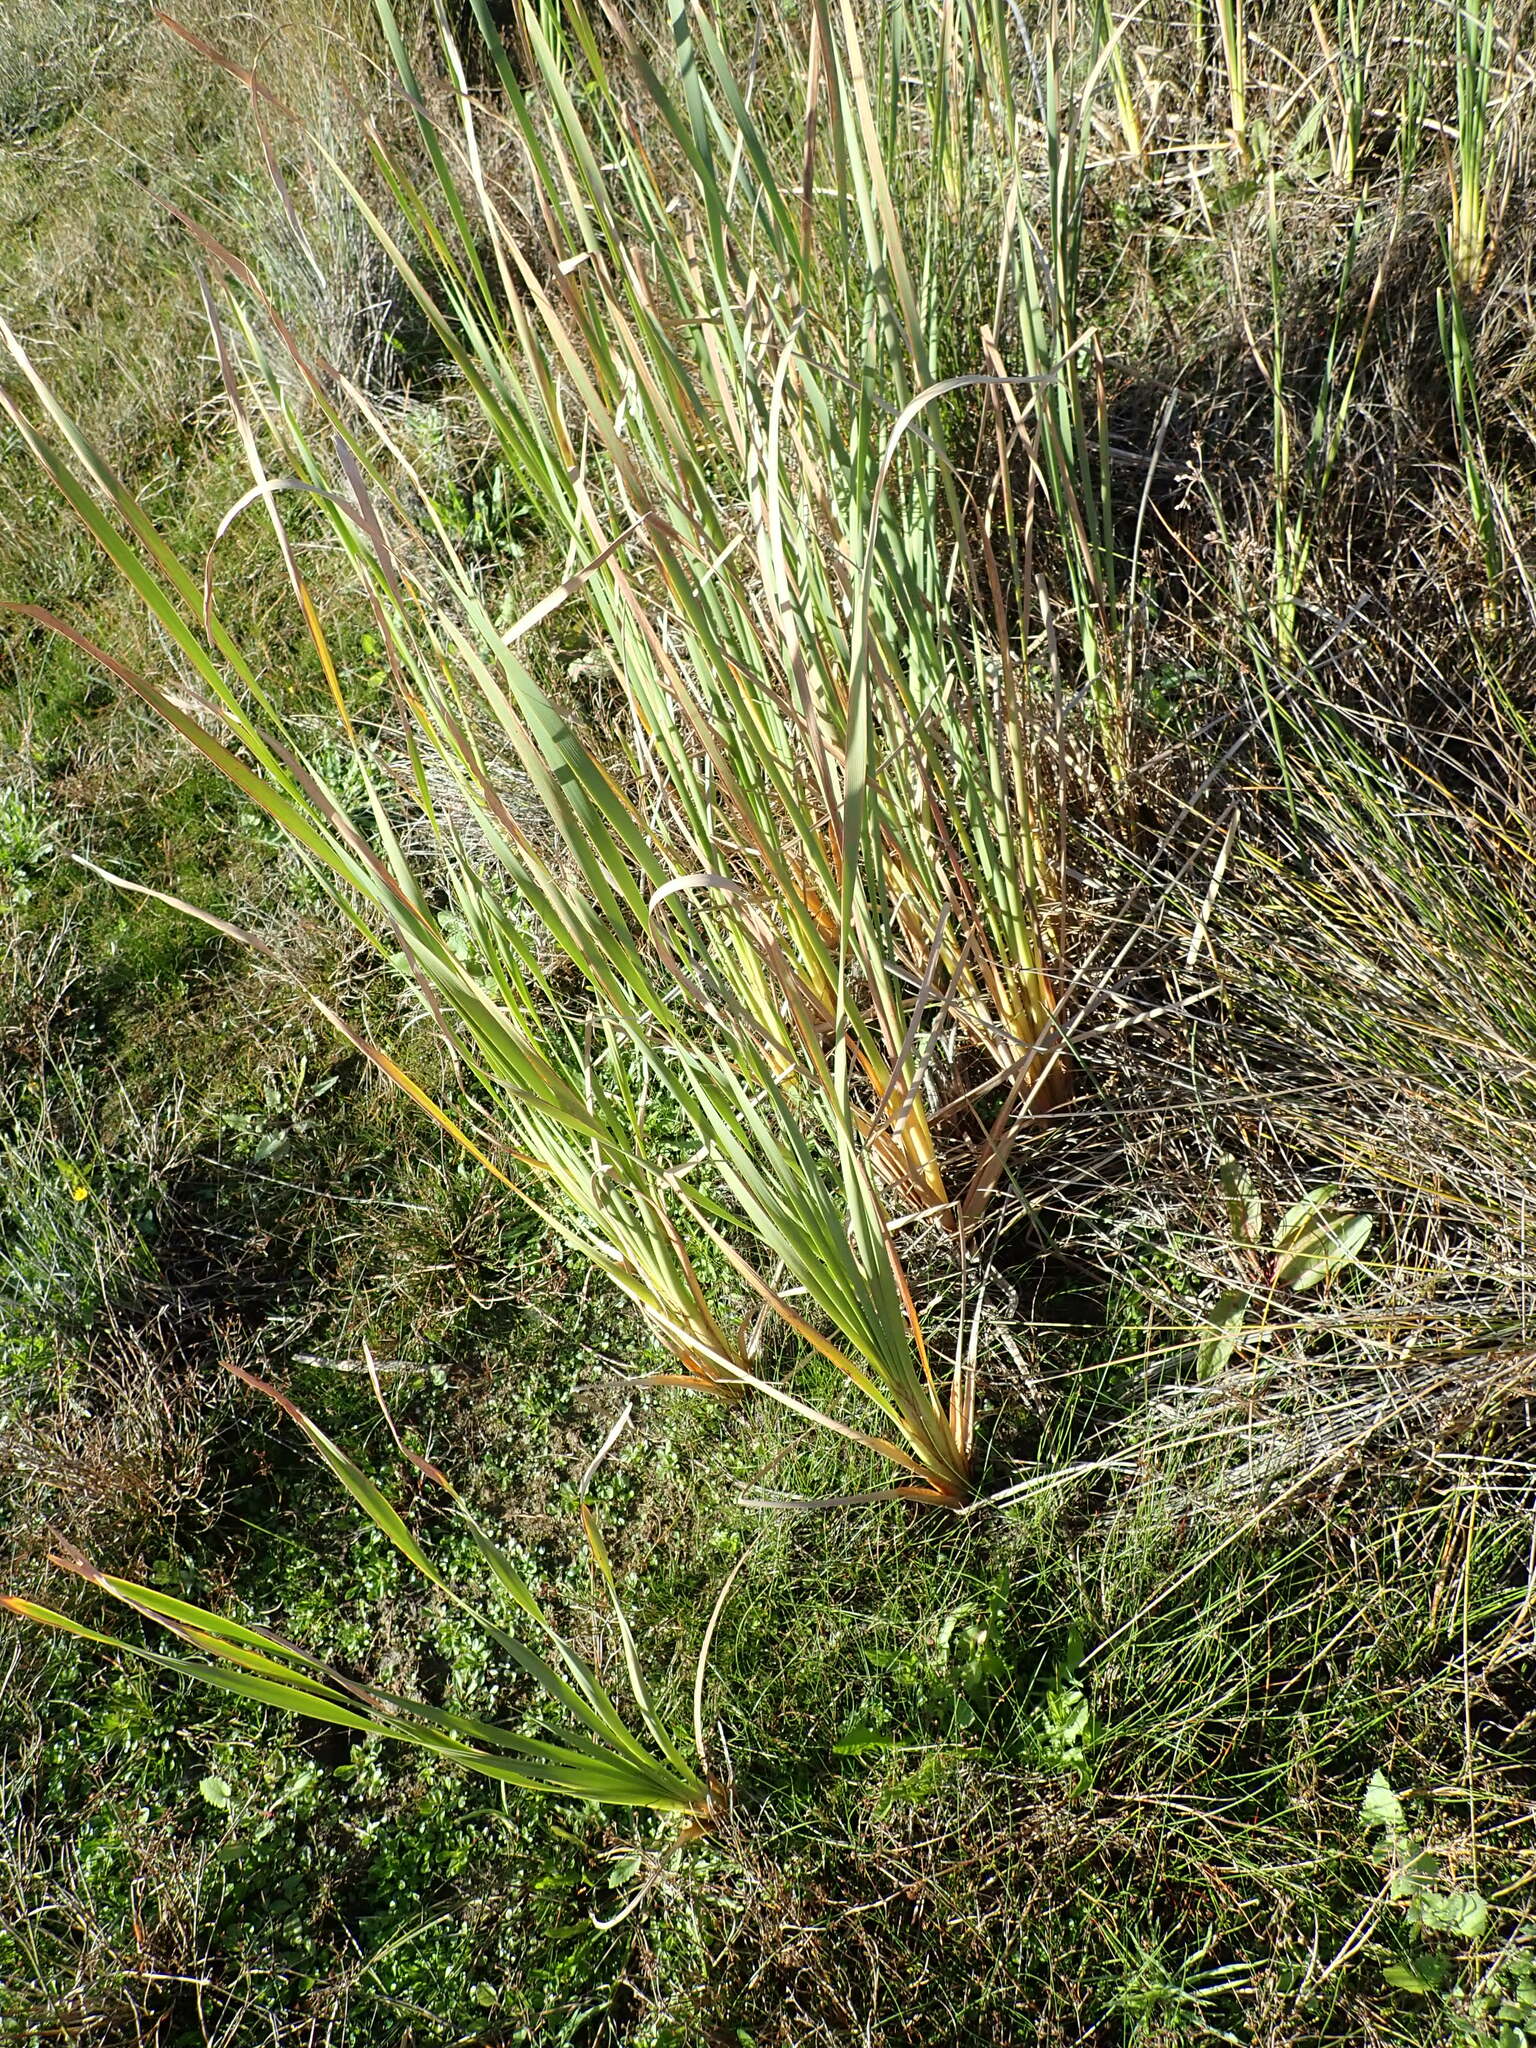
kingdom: Plantae
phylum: Tracheophyta
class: Liliopsida
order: Poales
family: Typhaceae
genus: Typha
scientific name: Typha orientalis
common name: Bullrush
